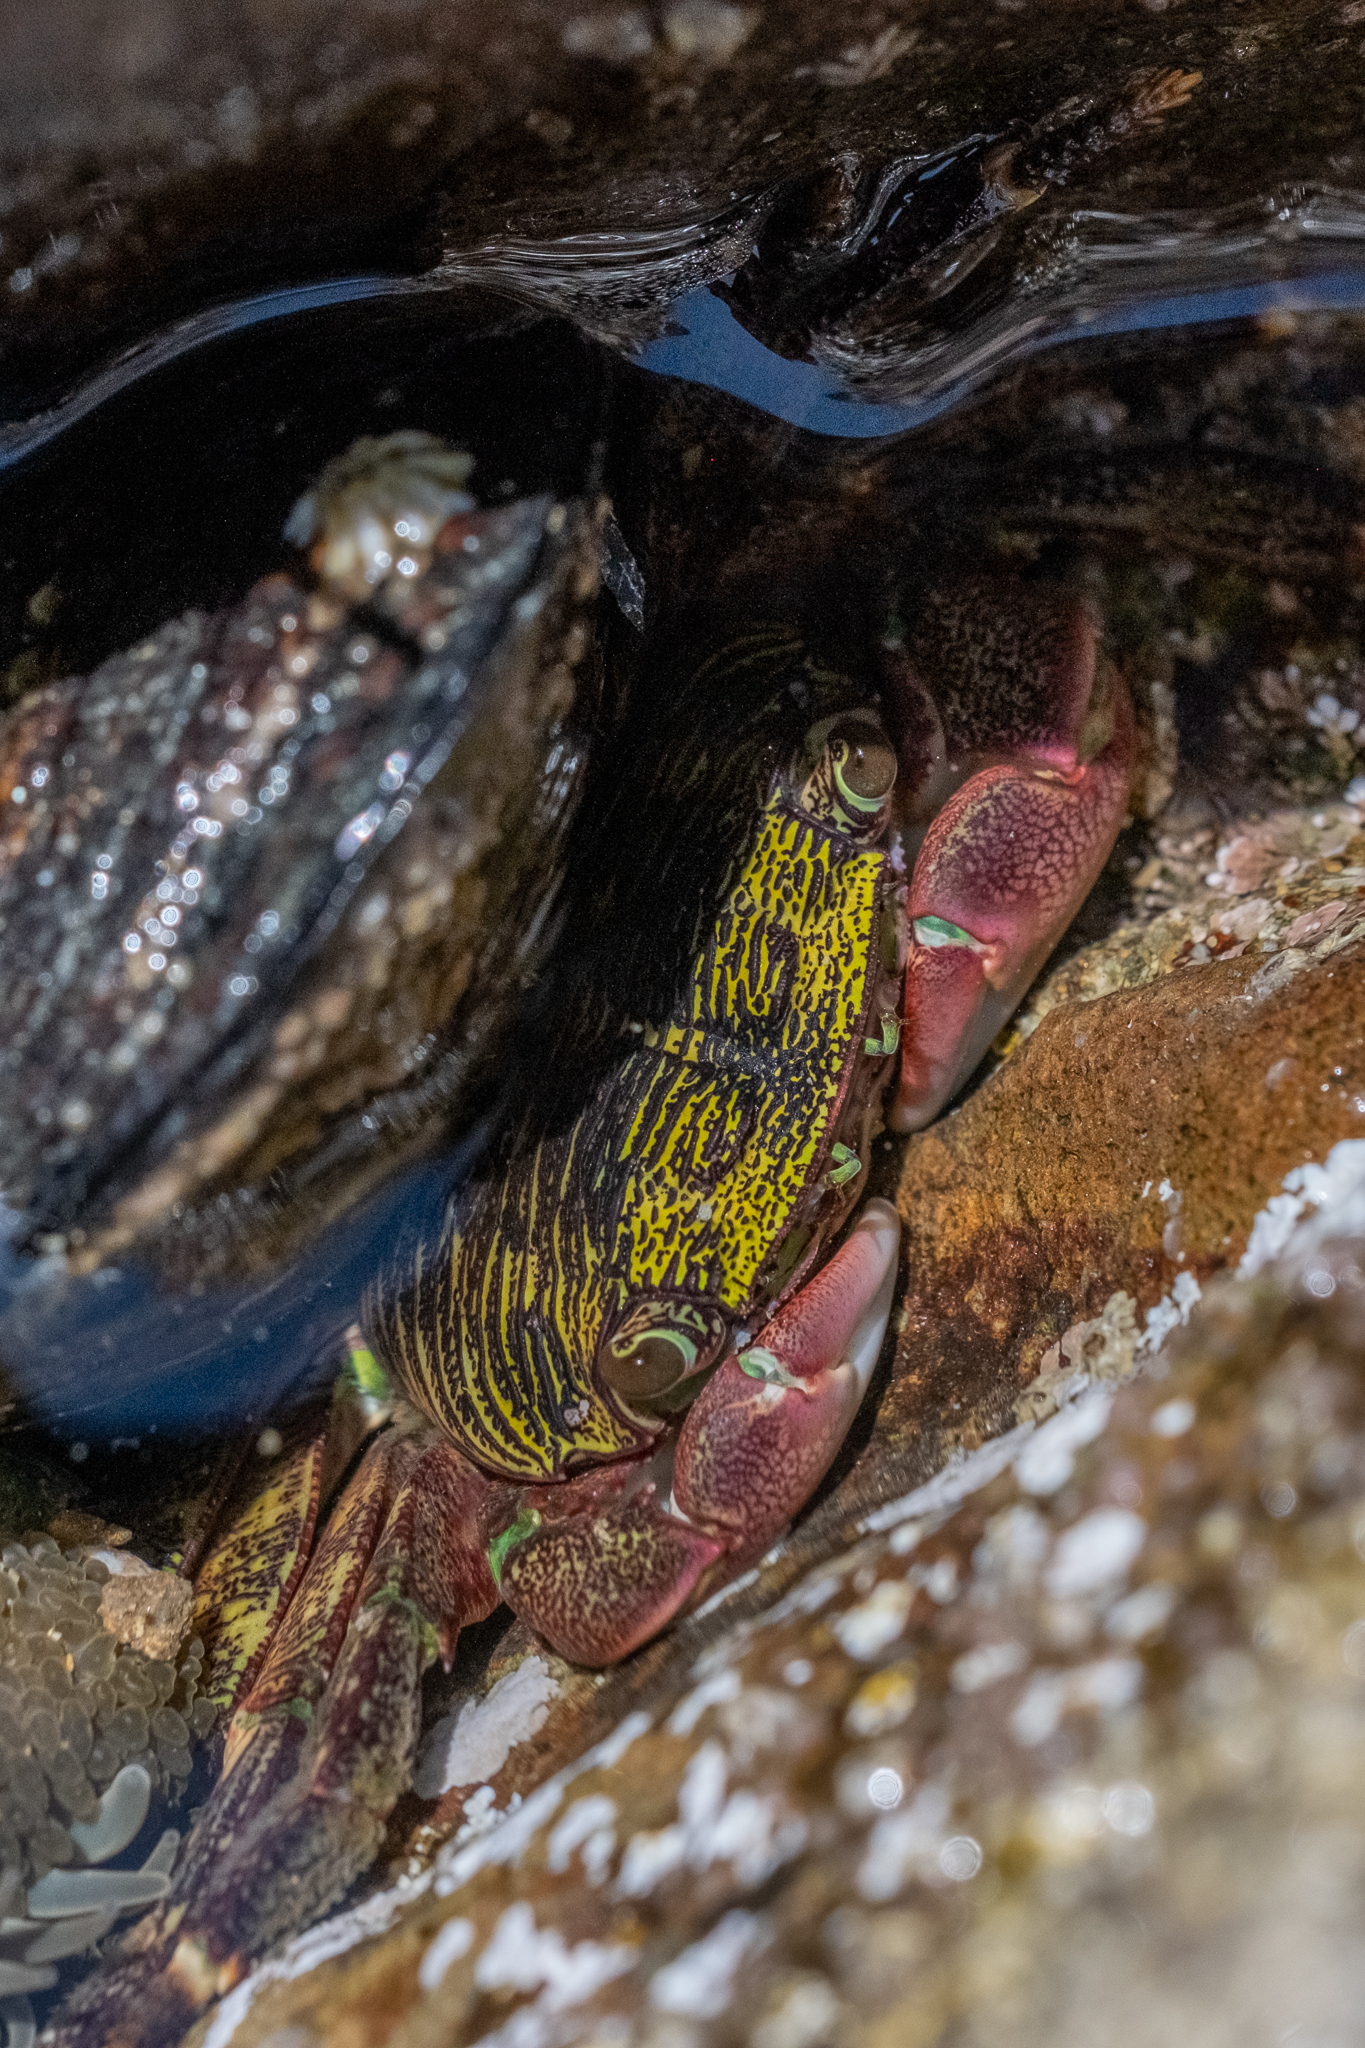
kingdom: Animalia
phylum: Arthropoda
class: Malacostraca
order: Decapoda
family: Grapsidae
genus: Pachygrapsus
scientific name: Pachygrapsus crassipes
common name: Striped shore crab
